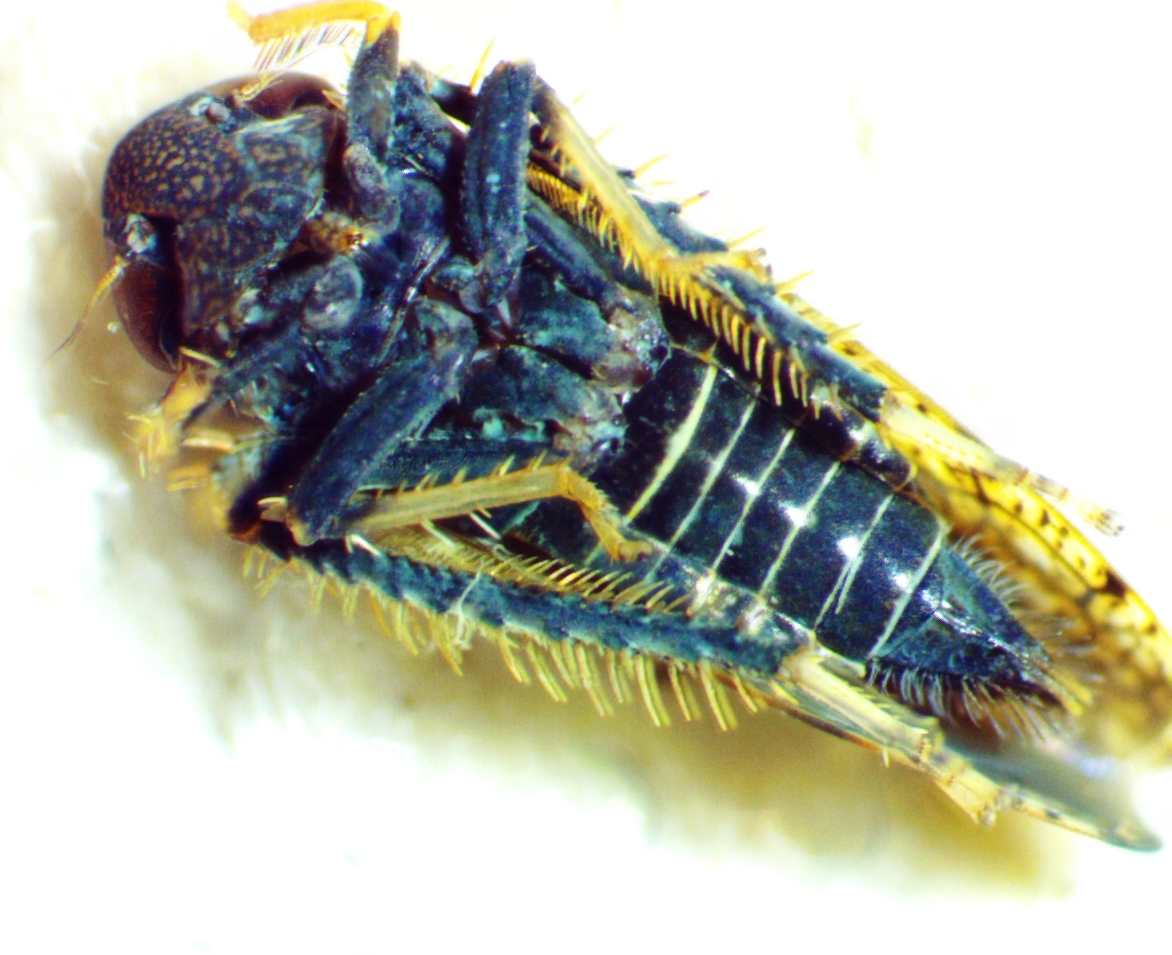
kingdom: Animalia
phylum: Arthropoda
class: Insecta
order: Hemiptera
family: Cicadellidae
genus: Orientus
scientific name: Orientus ishidae
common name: Japanese leafhopper
